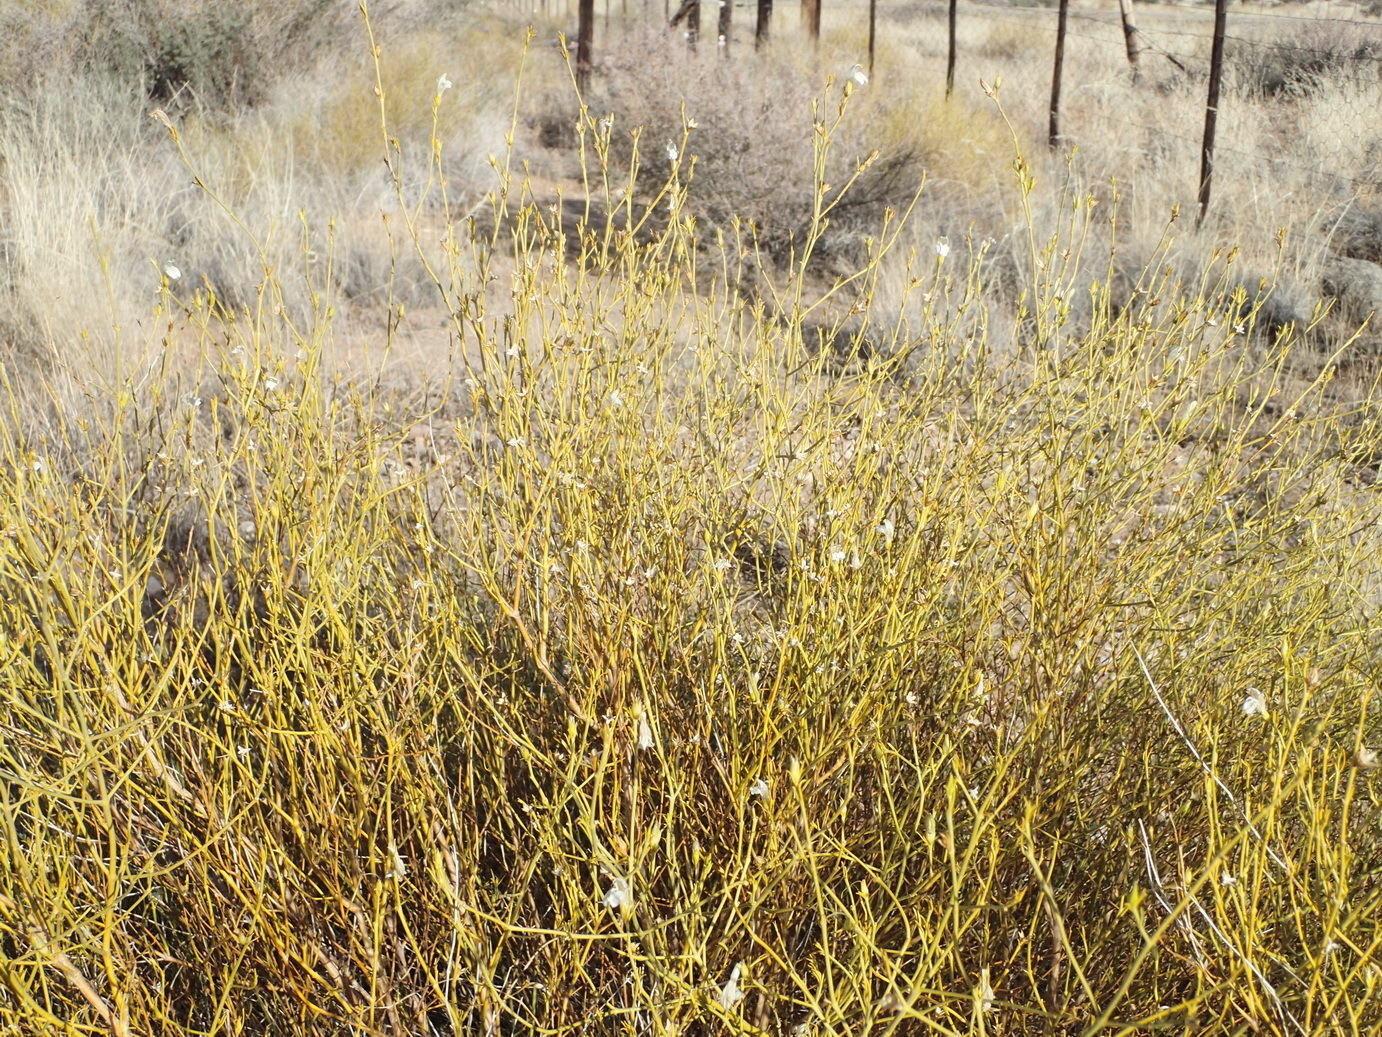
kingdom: Plantae
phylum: Tracheophyta
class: Magnoliopsida
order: Lamiales
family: Acanthaceae
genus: Pogonospermum
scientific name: Pogonospermum
